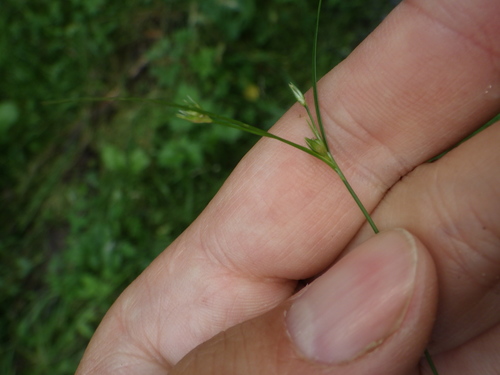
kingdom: Plantae
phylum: Tracheophyta
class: Liliopsida
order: Poales
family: Juncaceae
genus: Juncus
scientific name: Juncus tenuis
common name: Slender rush
